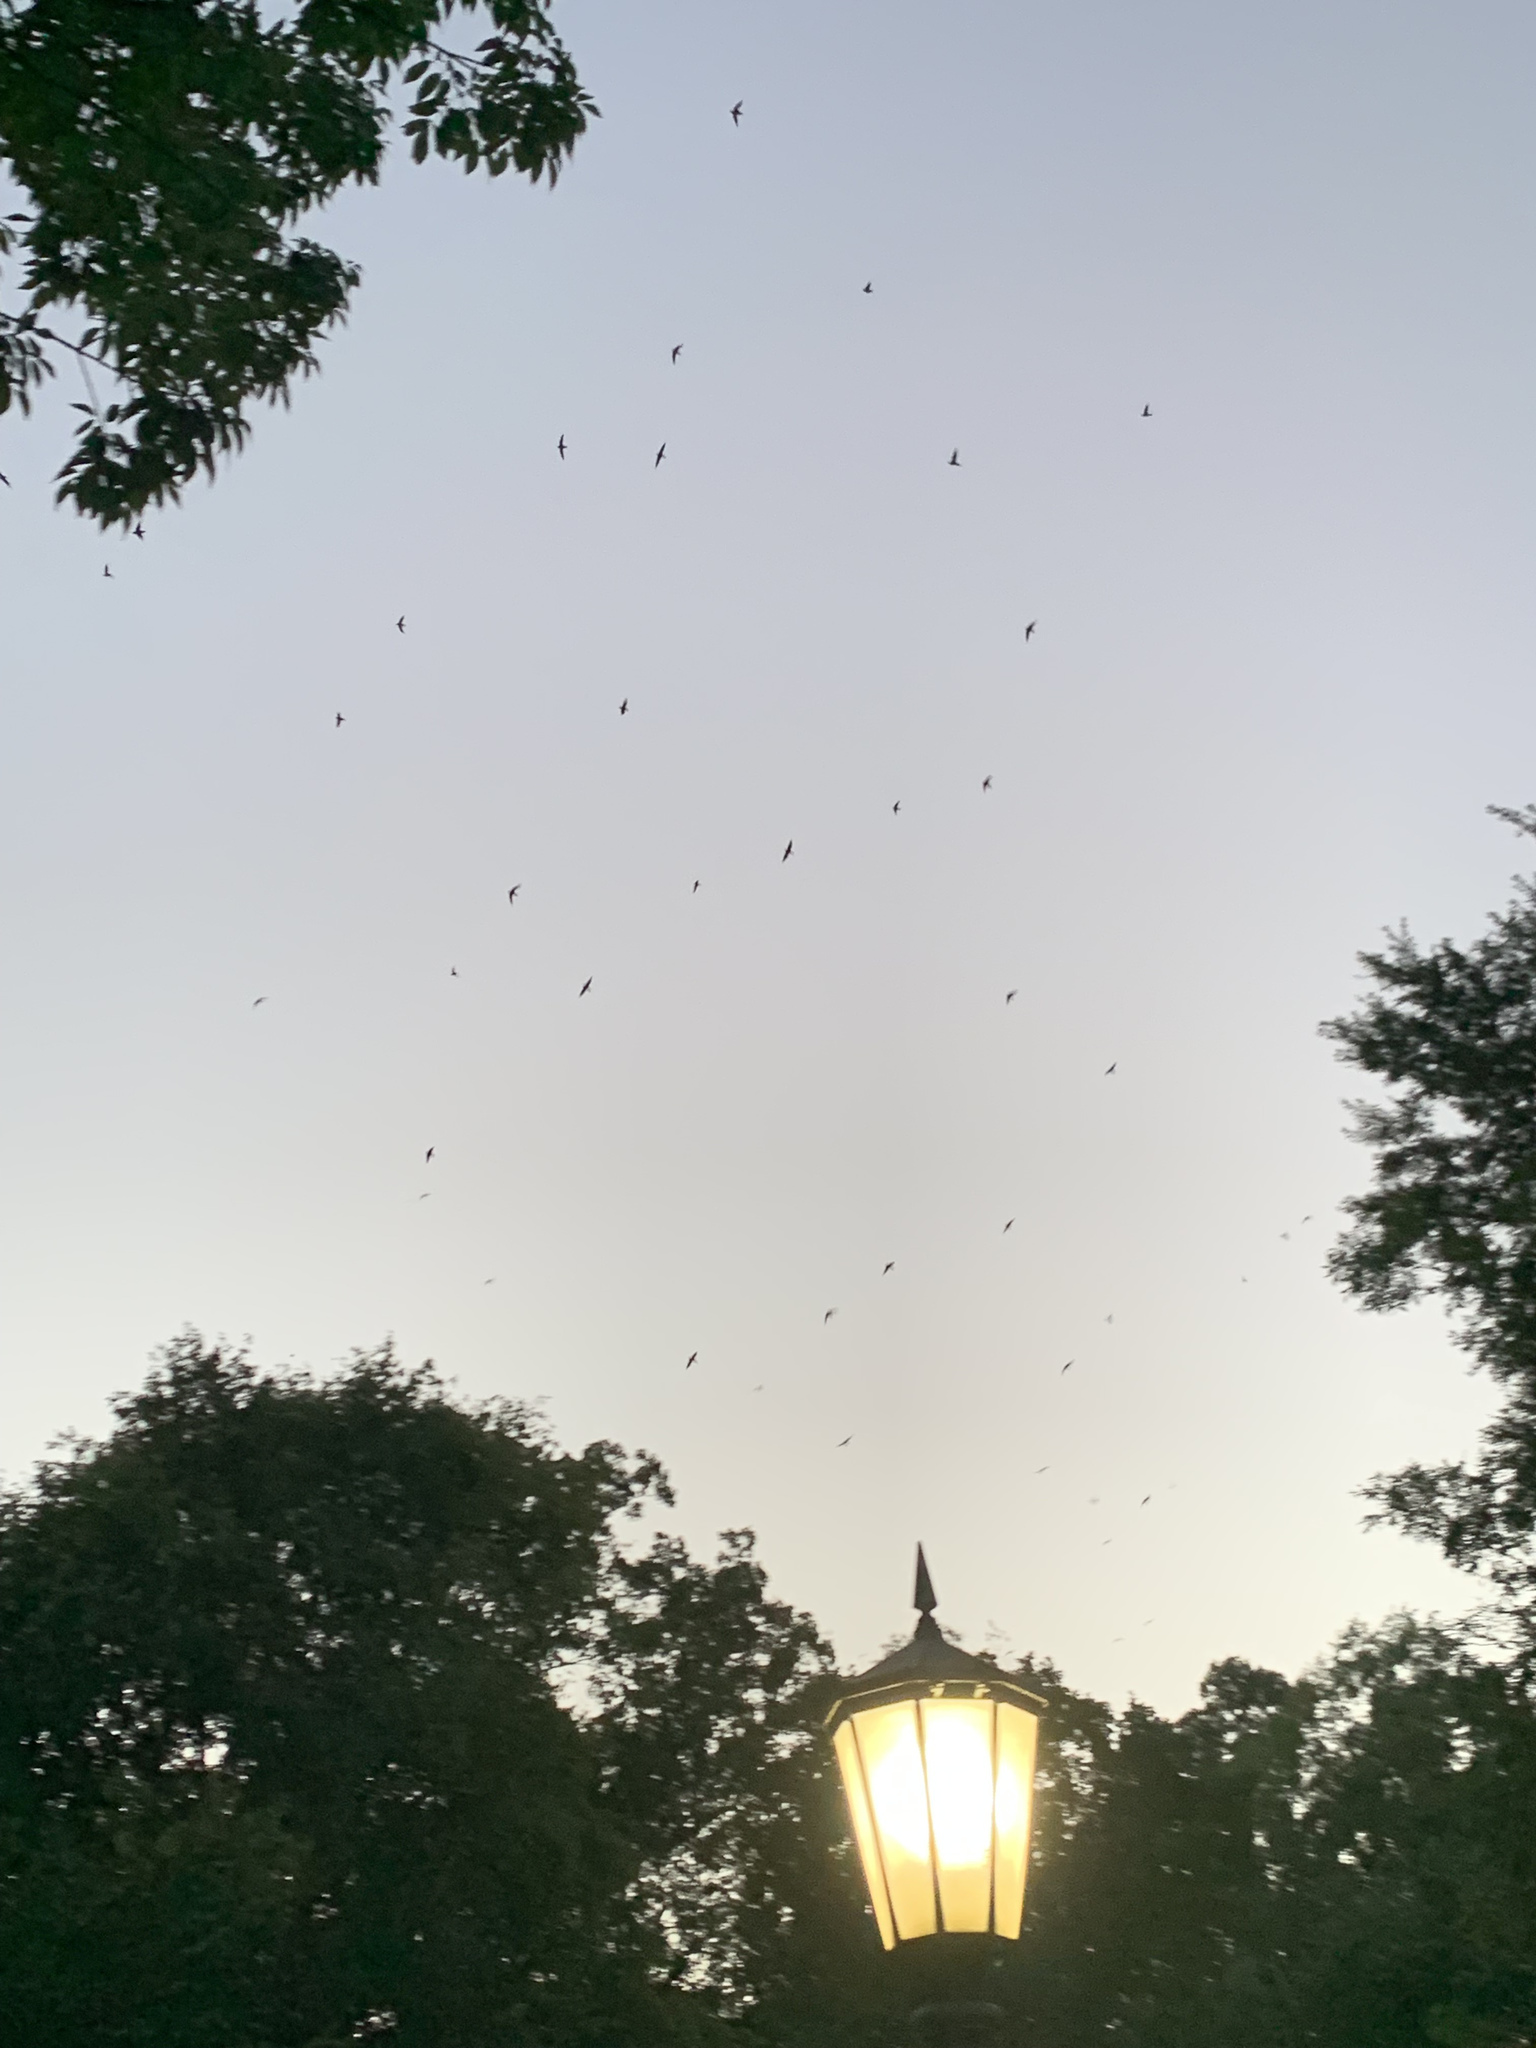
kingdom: Animalia
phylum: Chordata
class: Aves
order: Apodiformes
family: Apodidae
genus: Chaetura
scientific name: Chaetura pelagica
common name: Chimney swift
